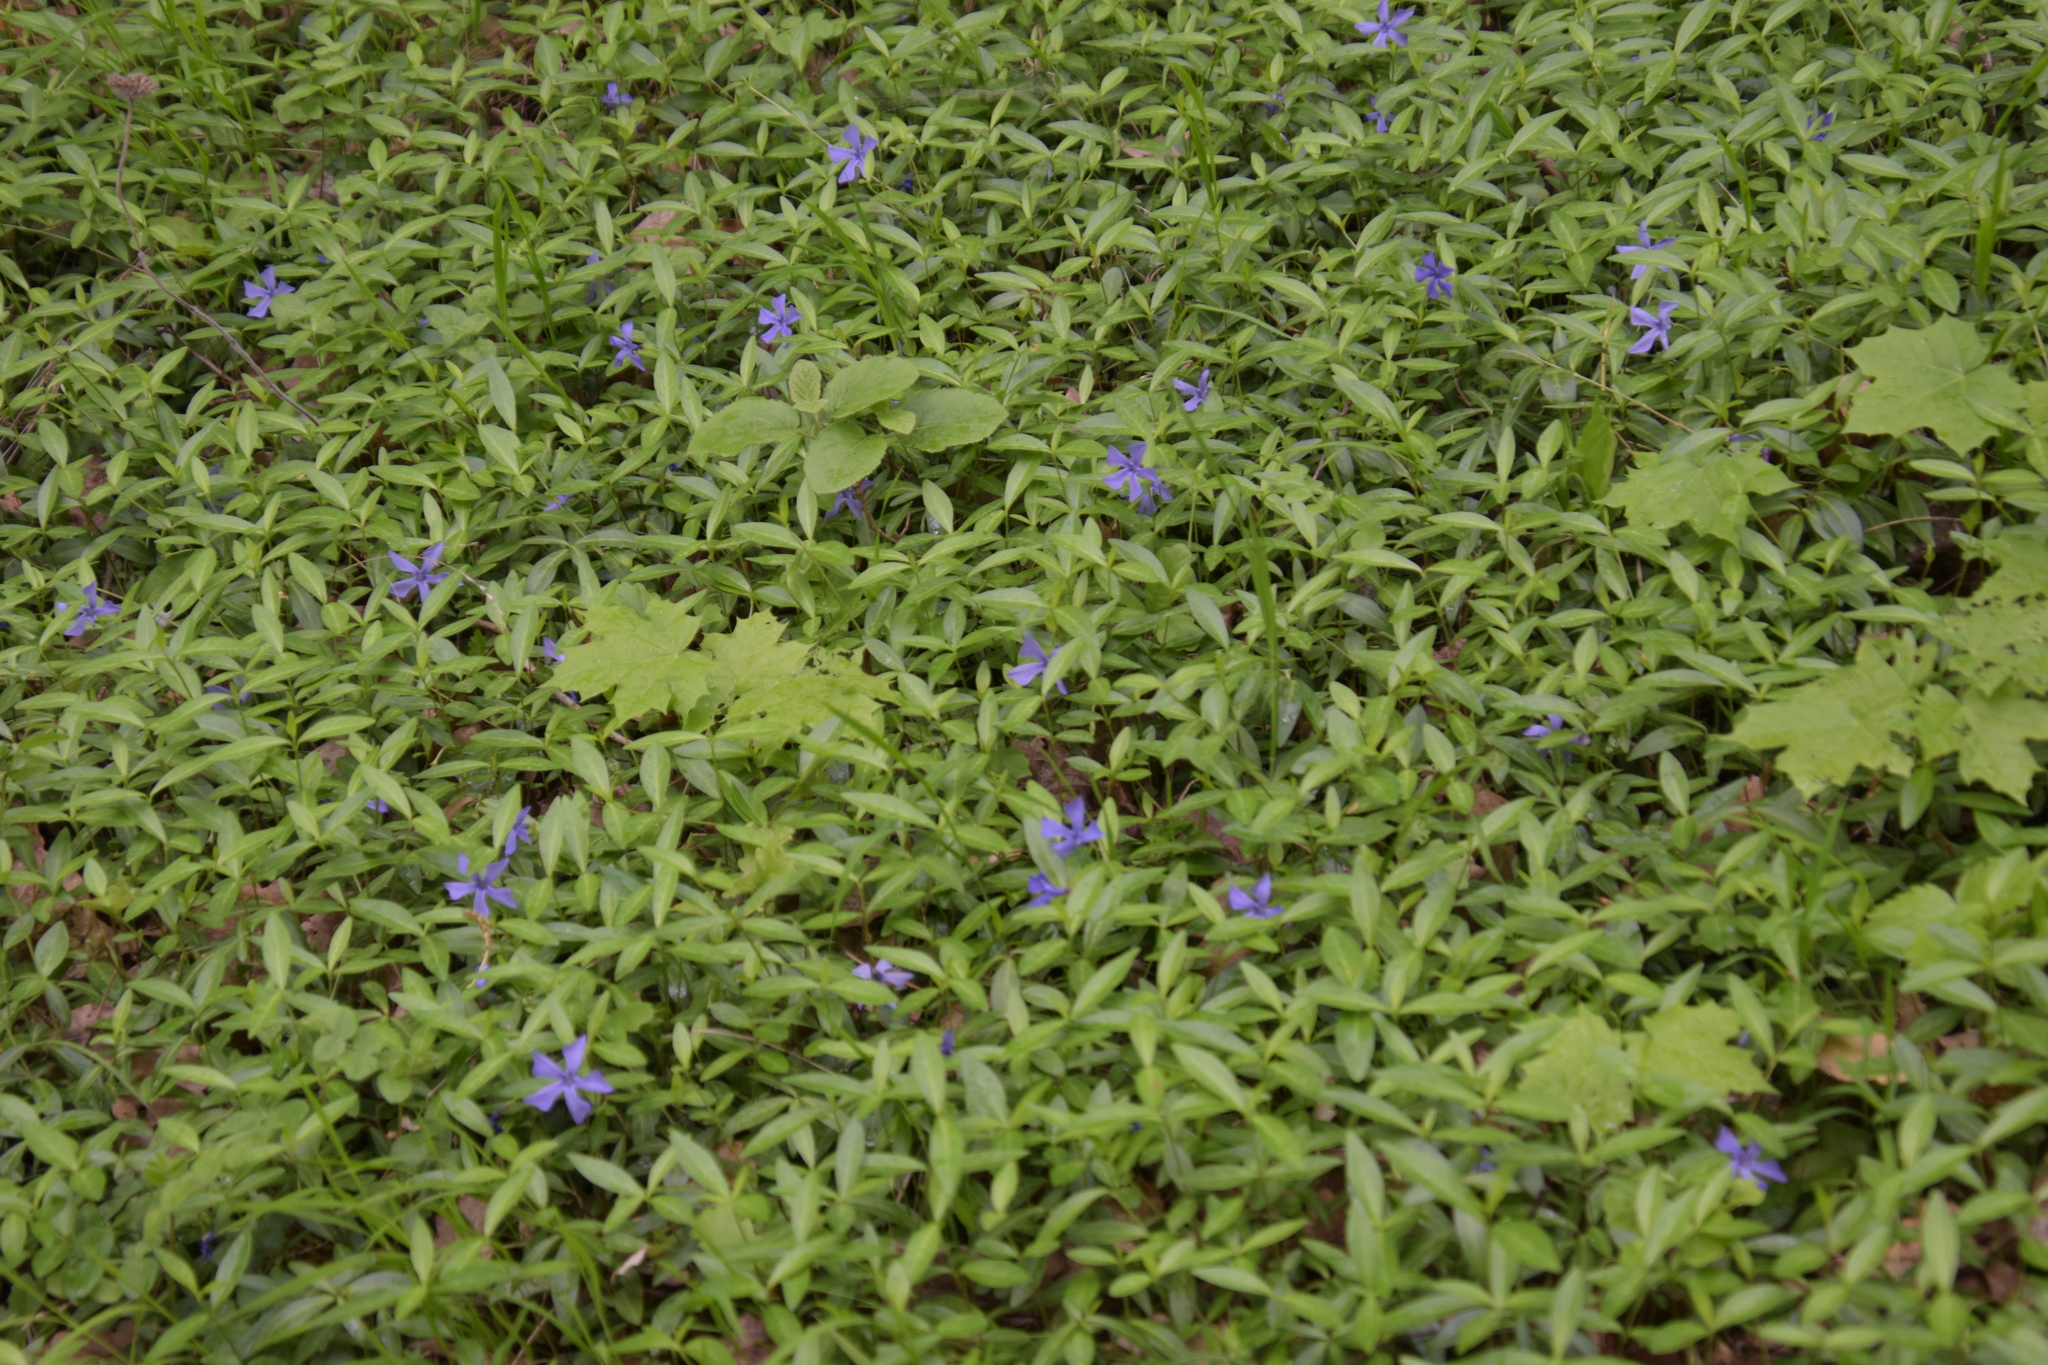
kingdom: Plantae
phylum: Tracheophyta
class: Magnoliopsida
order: Gentianales
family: Apocynaceae
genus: Vinca
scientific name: Vinca minor
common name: Lesser periwinkle
